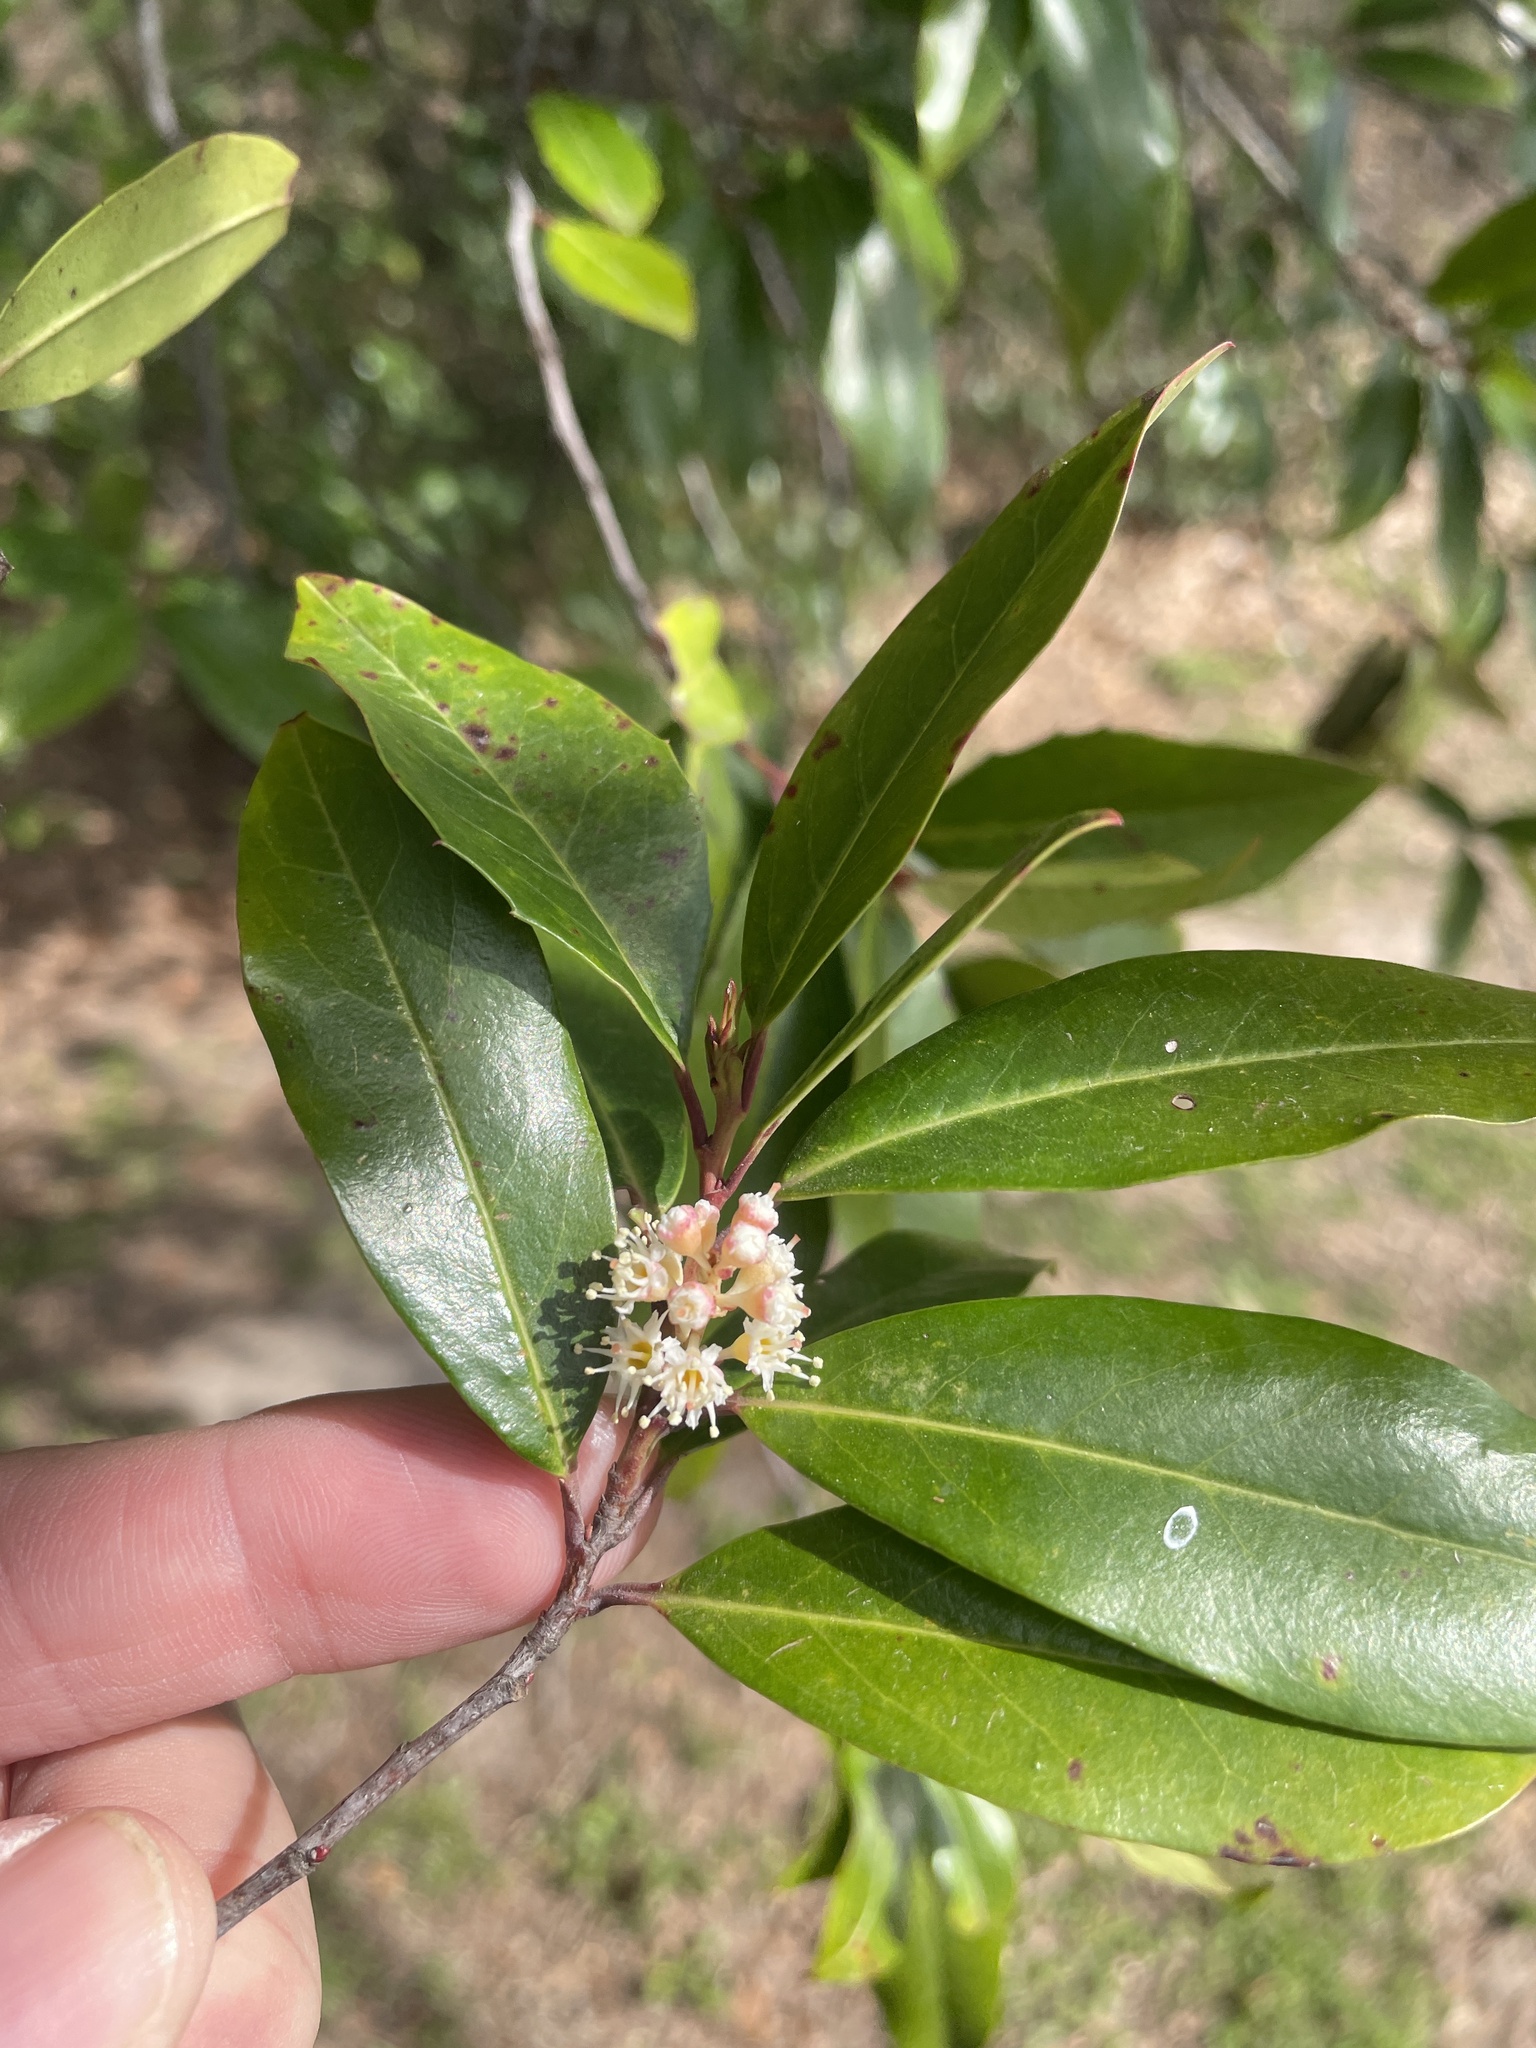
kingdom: Plantae
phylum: Tracheophyta
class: Magnoliopsida
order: Rosales
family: Rosaceae
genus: Prunus
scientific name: Prunus caroliniana
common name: Carolina laurel cherry
